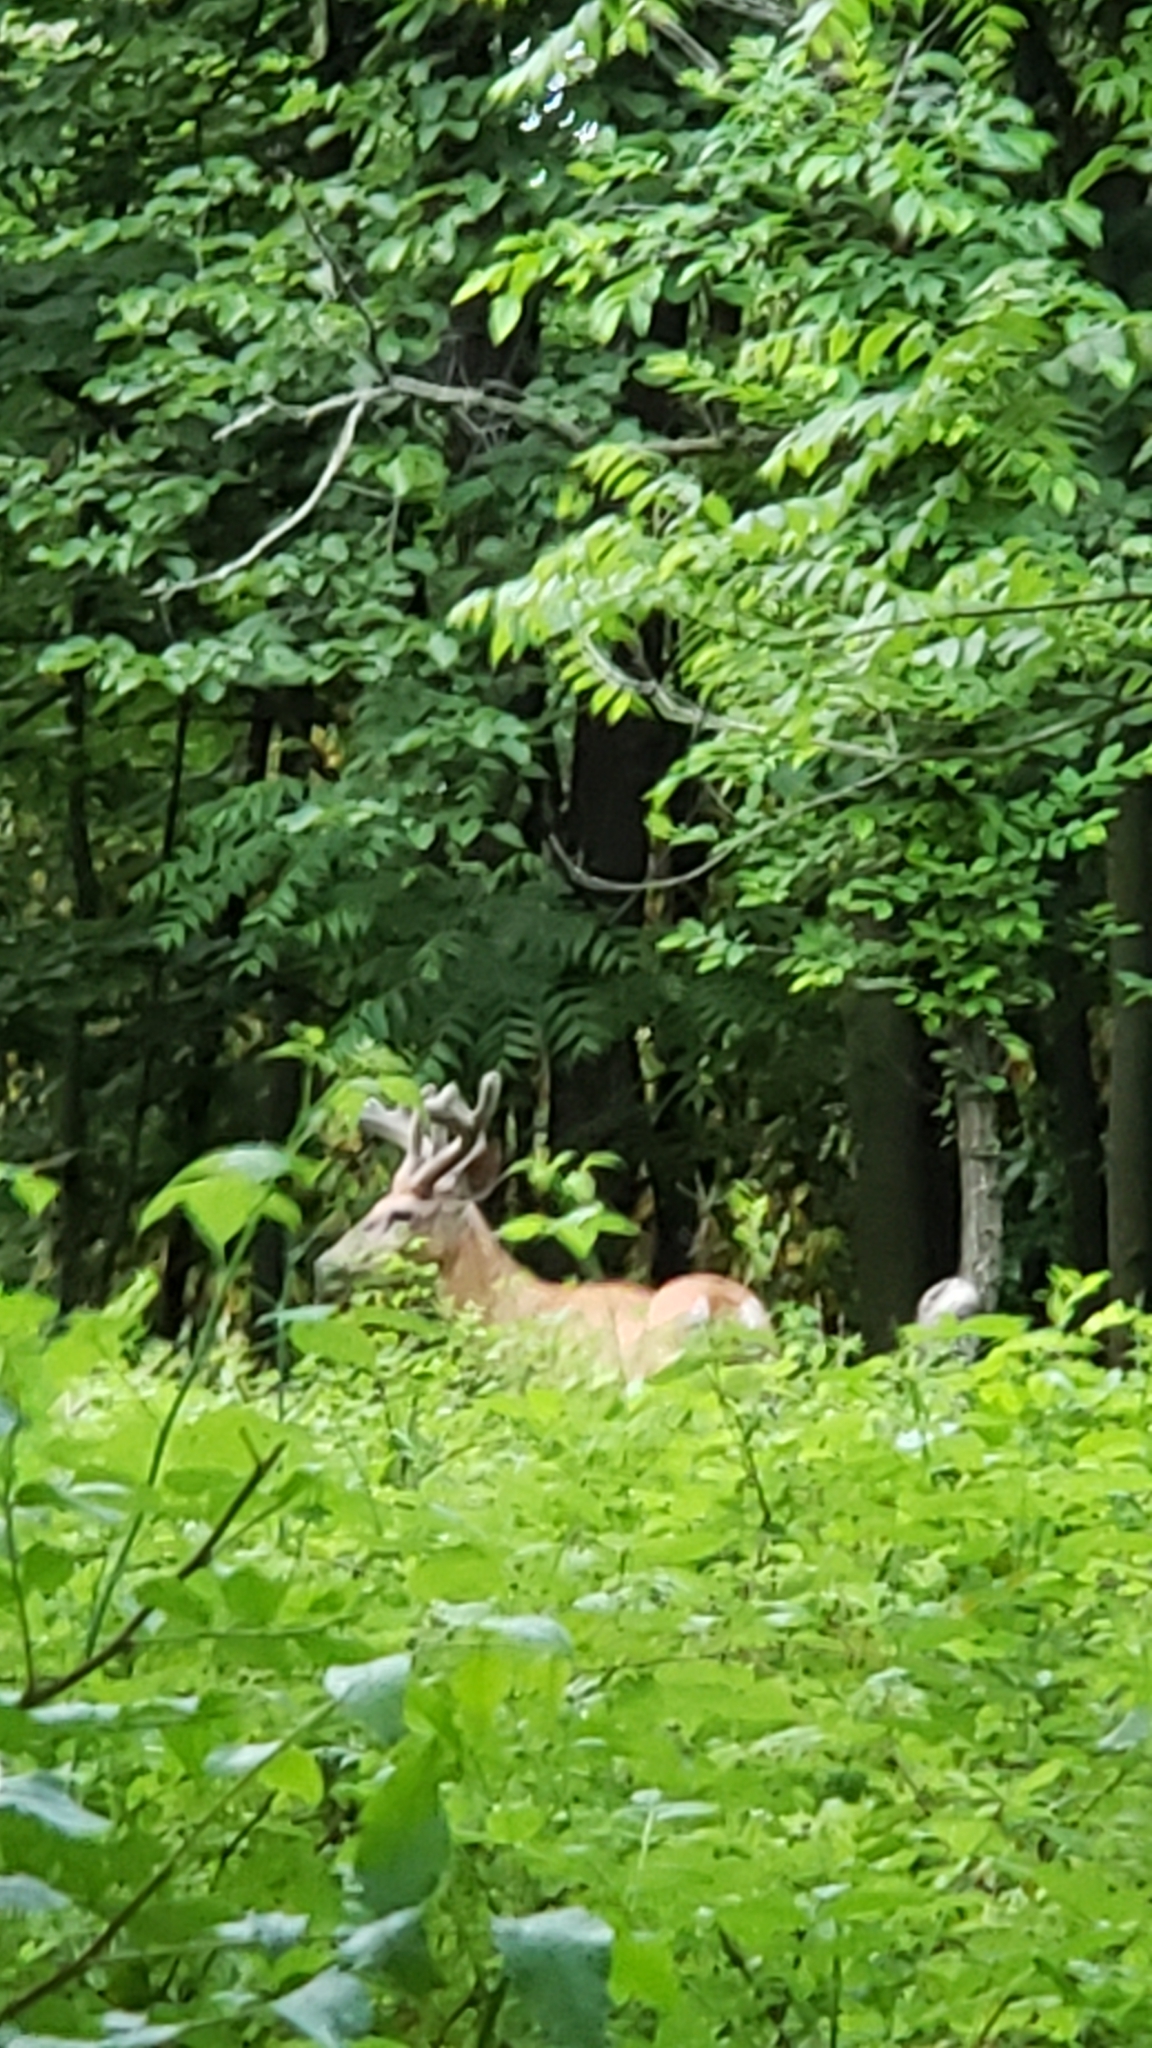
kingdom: Animalia
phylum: Chordata
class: Mammalia
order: Artiodactyla
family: Cervidae
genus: Odocoileus
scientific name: Odocoileus virginianus
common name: White-tailed deer
